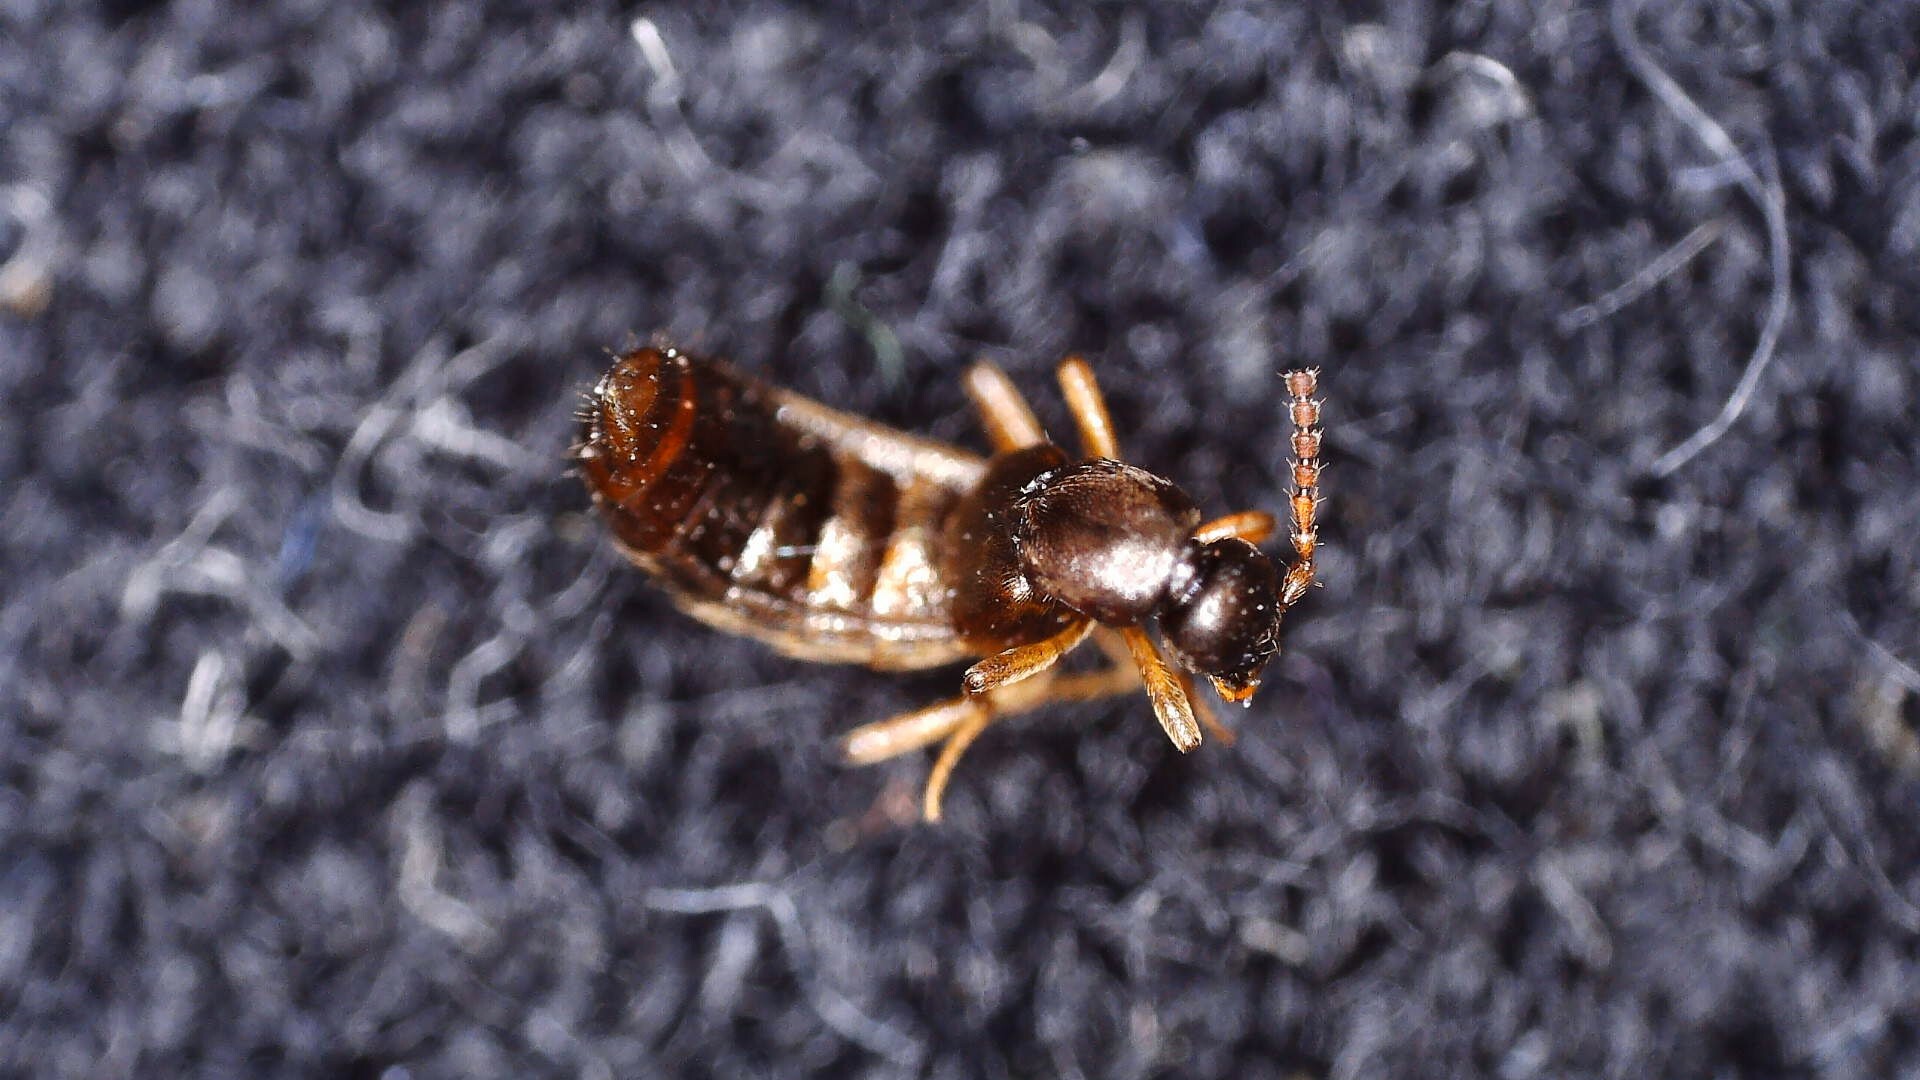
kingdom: Animalia
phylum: Arthropoda
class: Insecta
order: Coleoptera
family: Staphylinidae
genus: Drusilla
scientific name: Drusilla canaliculata
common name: Rove beetle
